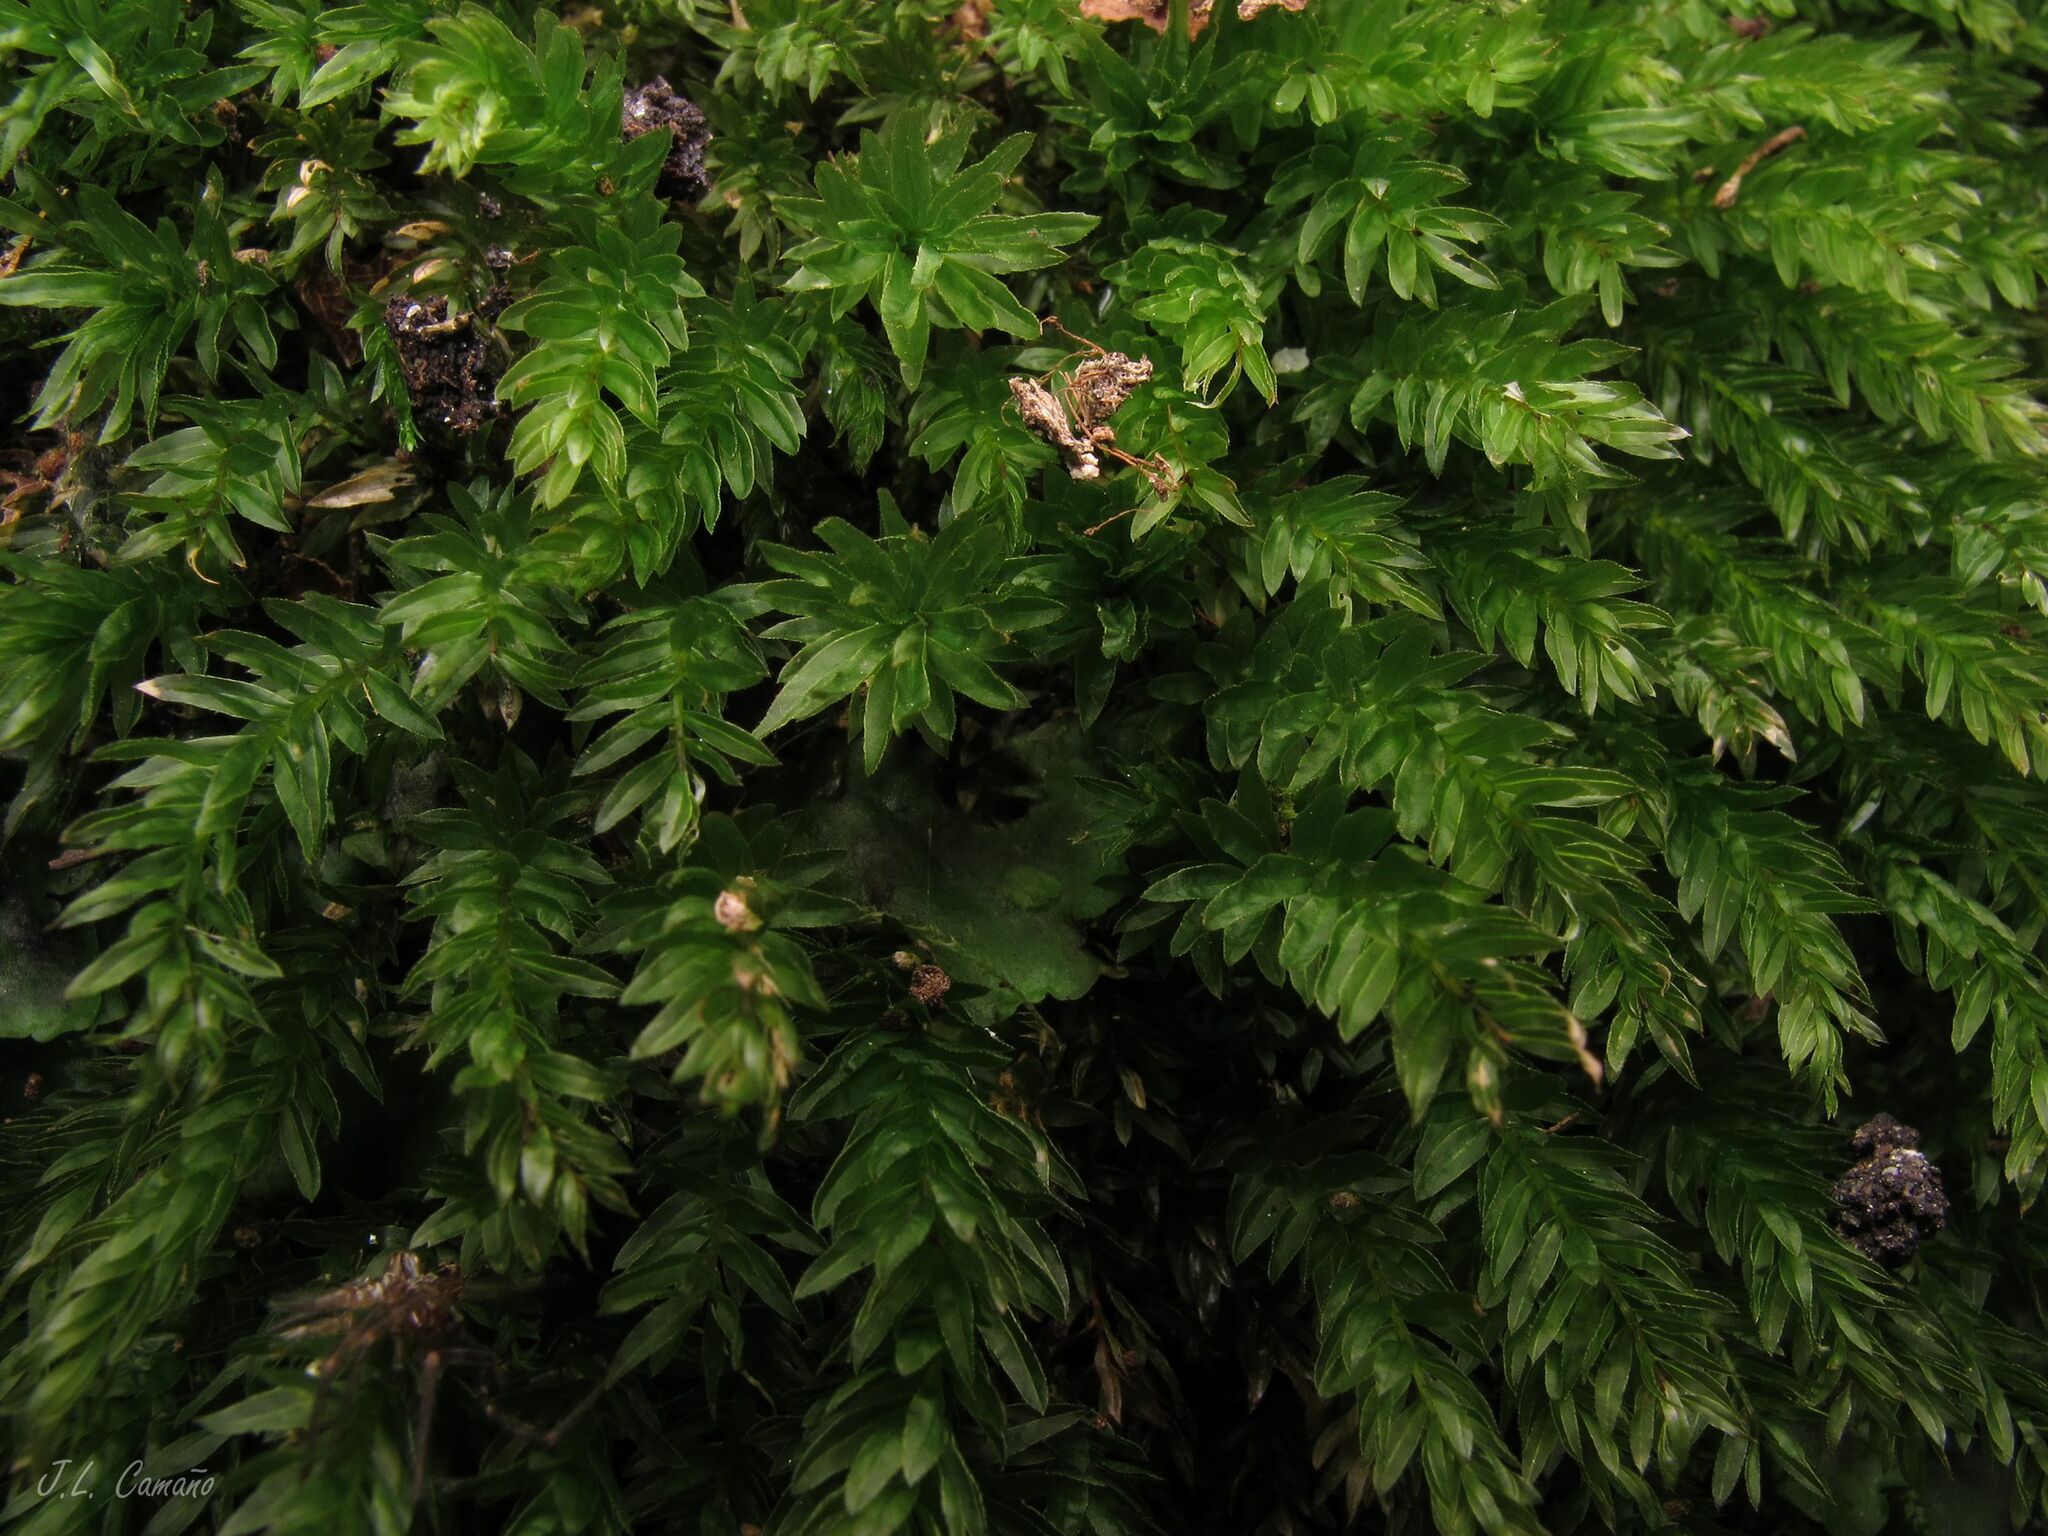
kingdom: Plantae
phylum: Bryophyta
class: Bryopsida
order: Bryales
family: Mniaceae
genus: Mnium
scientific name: Mnium hornum
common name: Swan's-neck leafy moss
